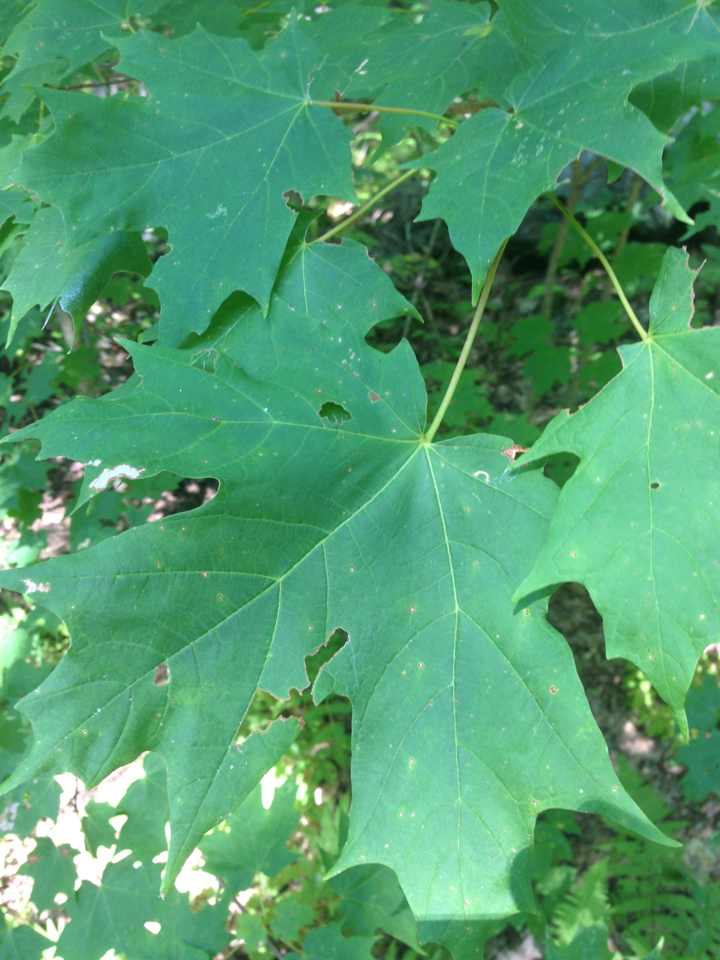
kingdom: Plantae
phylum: Tracheophyta
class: Magnoliopsida
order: Sapindales
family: Sapindaceae
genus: Acer
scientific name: Acer saccharum
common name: Sugar maple
